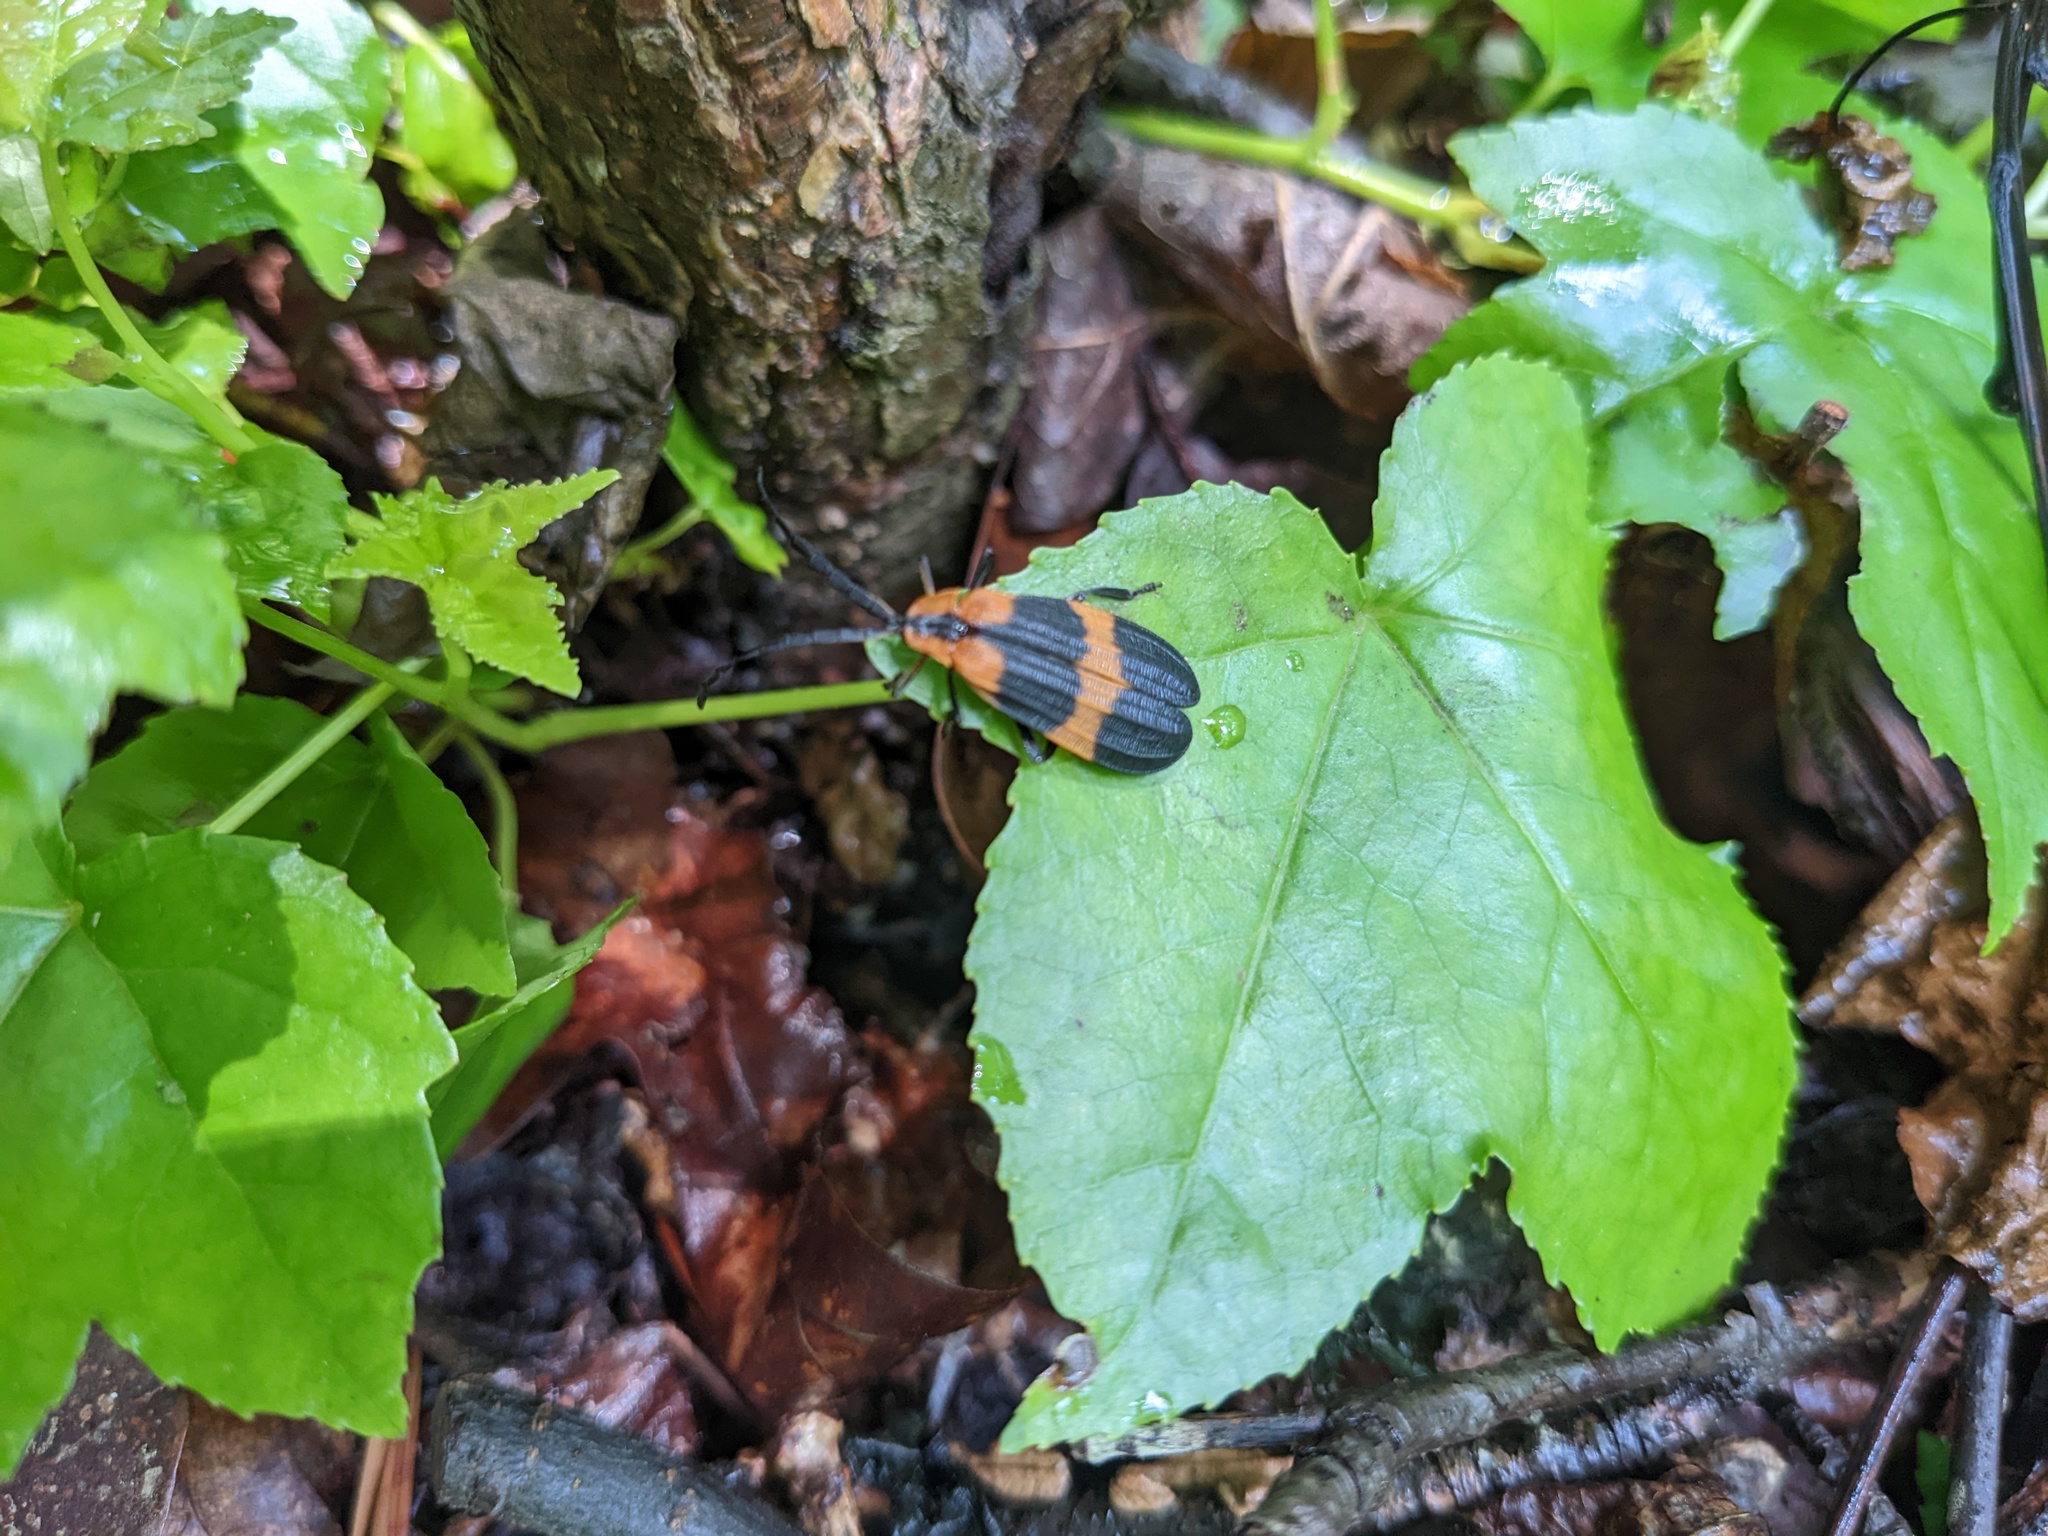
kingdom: Animalia
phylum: Arthropoda
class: Insecta
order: Coleoptera
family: Lycidae
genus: Calopteron
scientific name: Calopteron reticulatum
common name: Banded net-winged beetle
